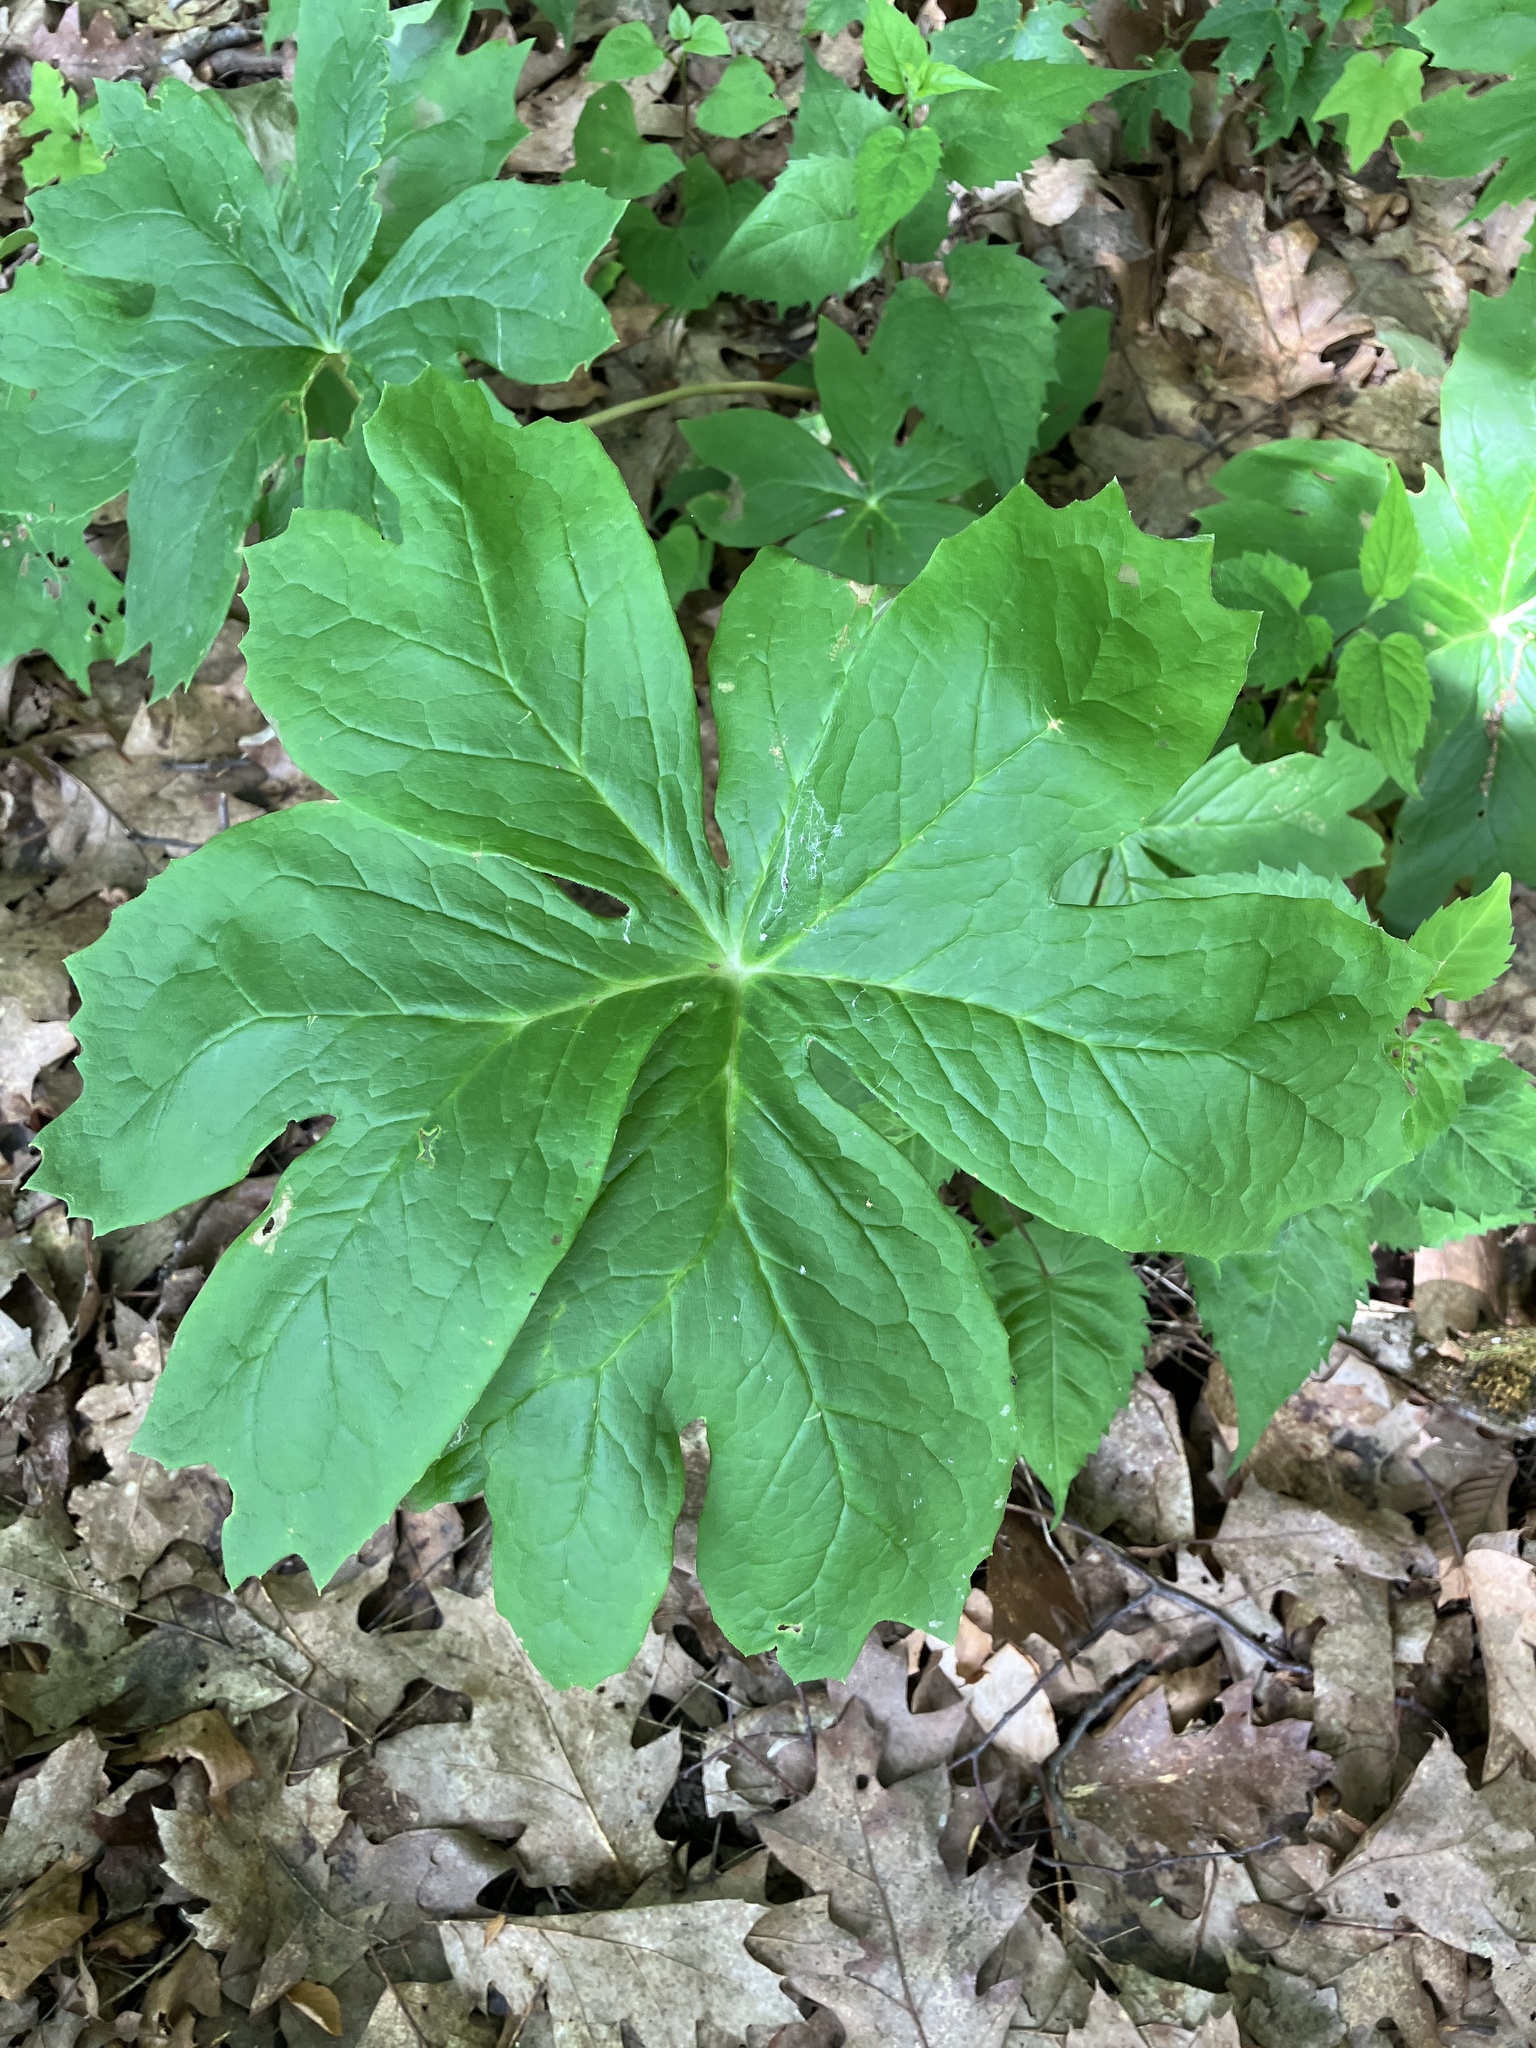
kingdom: Plantae
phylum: Tracheophyta
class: Magnoliopsida
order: Ranunculales
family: Berberidaceae
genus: Podophyllum
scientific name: Podophyllum peltatum
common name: Wild mandrake
